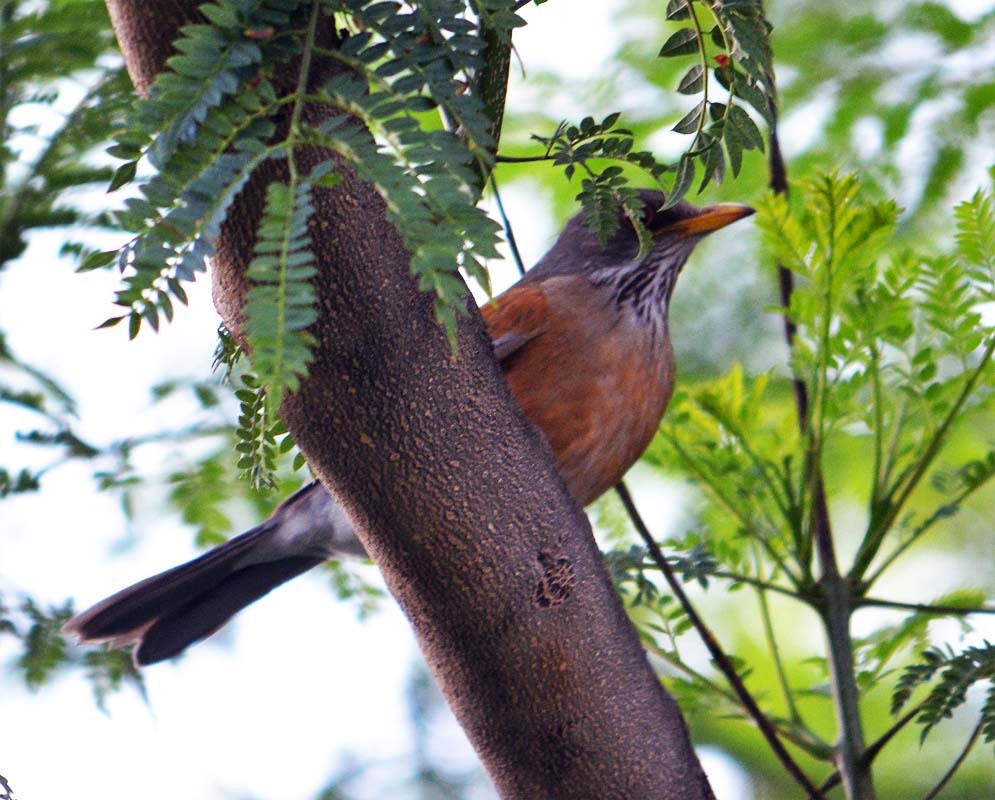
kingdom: Animalia
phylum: Chordata
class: Aves
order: Passeriformes
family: Turdidae
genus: Turdus
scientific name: Turdus rufopalliatus
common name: Rufous-backed robin
